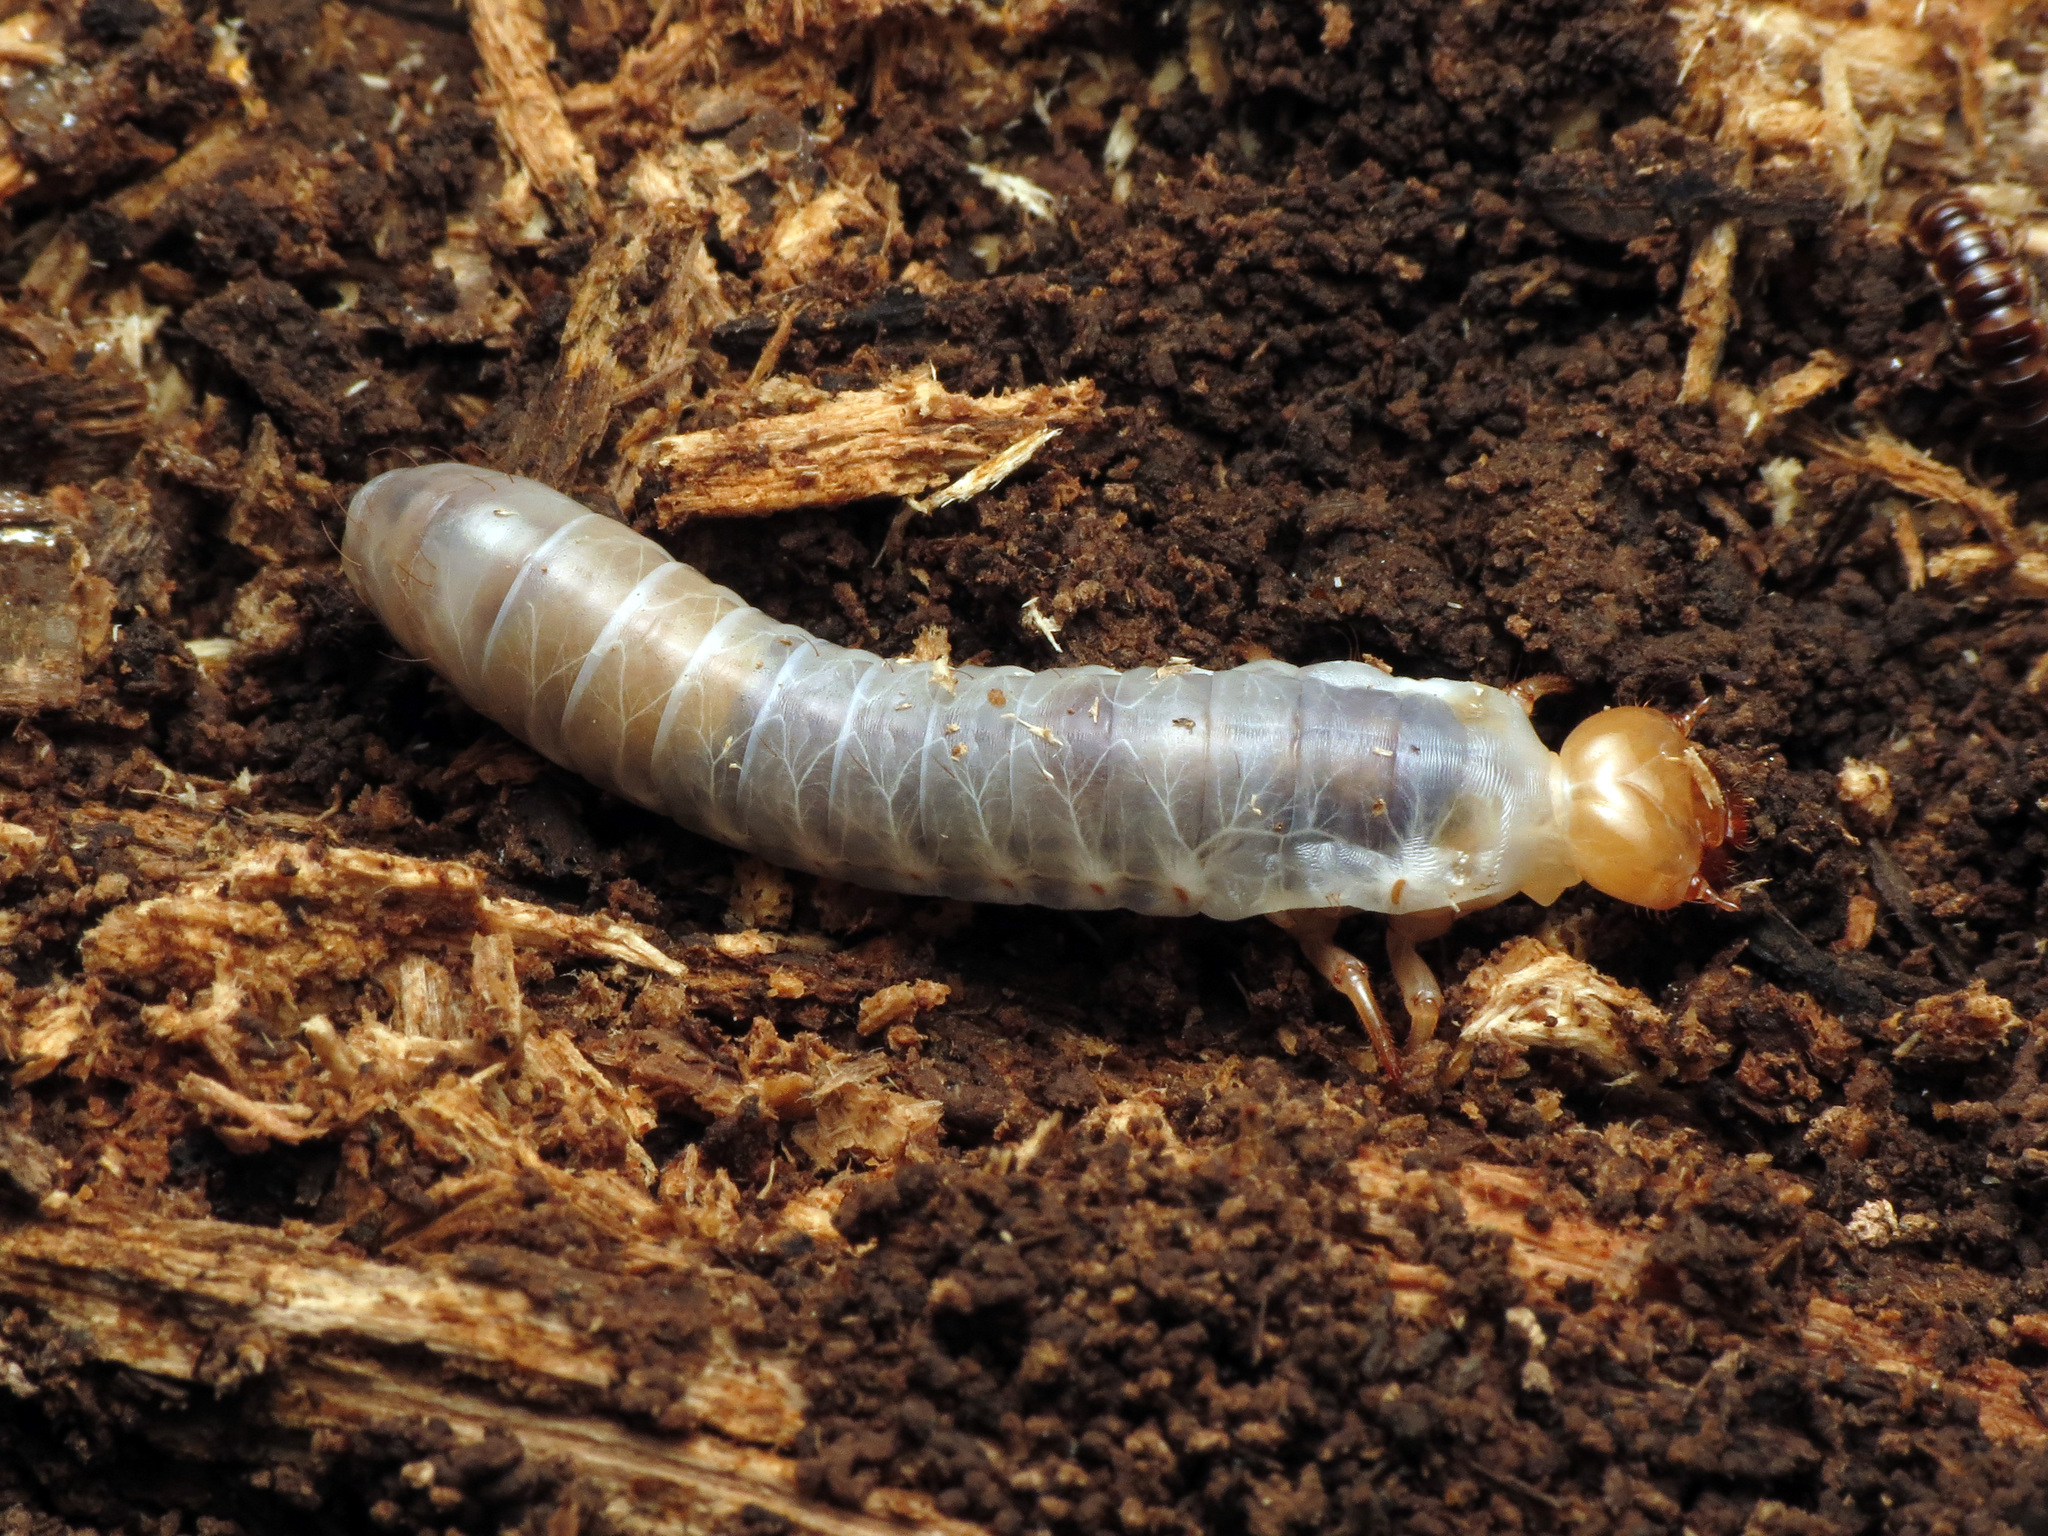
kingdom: Animalia
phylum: Arthropoda
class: Insecta
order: Coleoptera
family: Passalidae
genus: Odontotaenius
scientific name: Odontotaenius disjunctus
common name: Patent leather beetle
